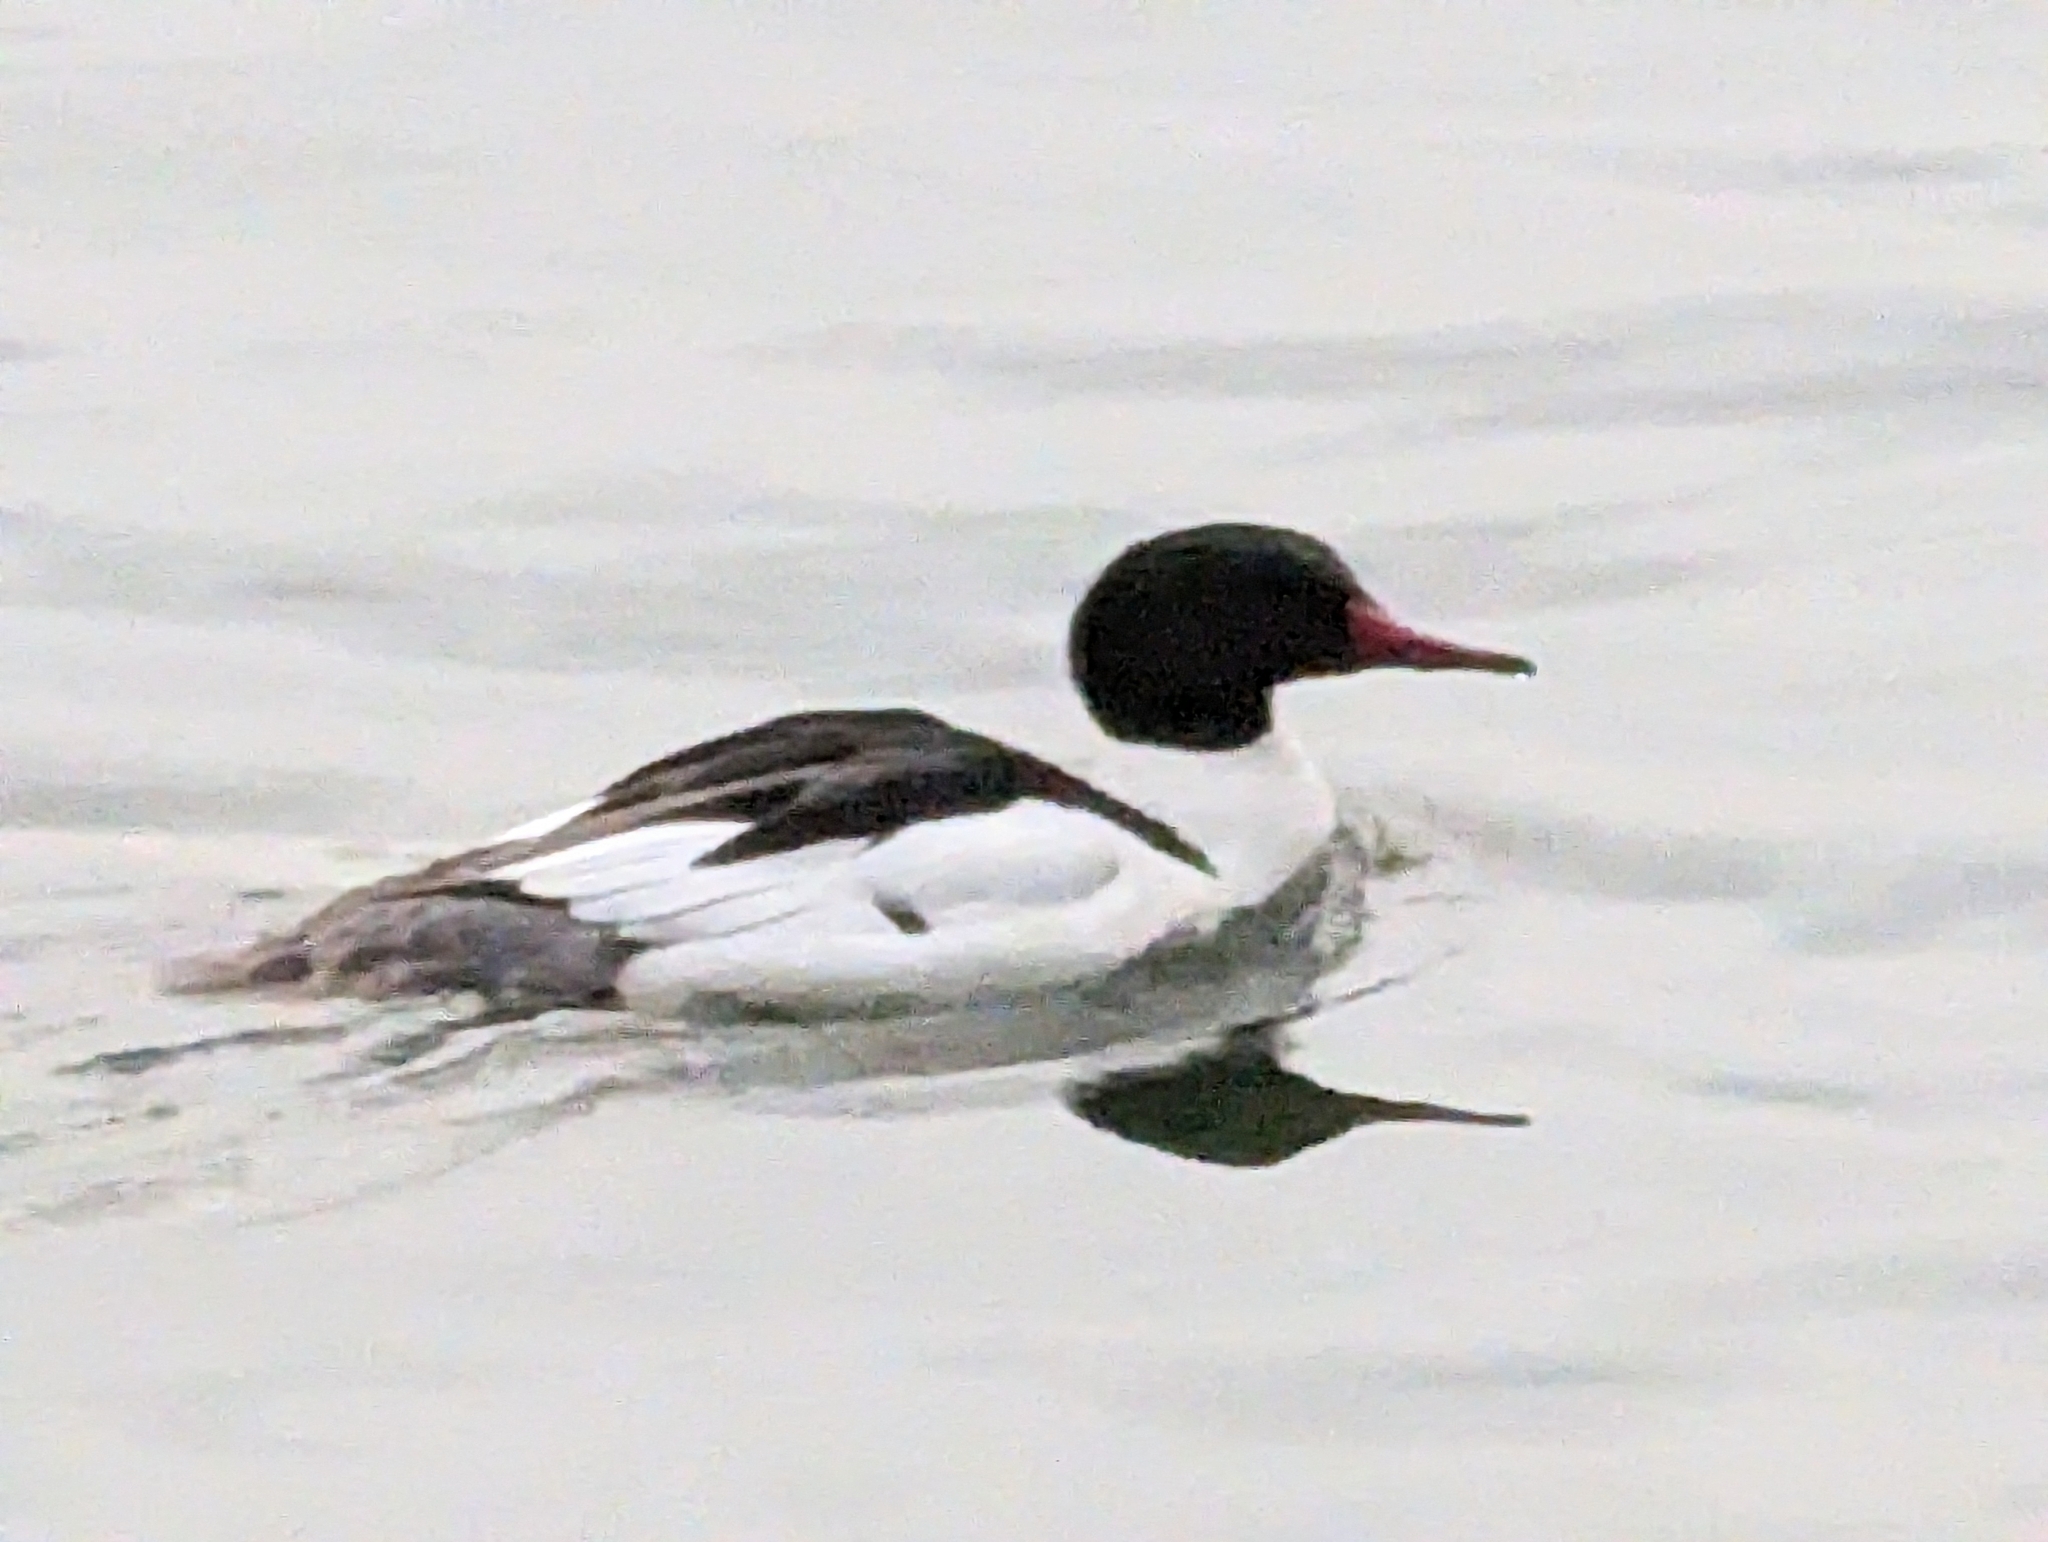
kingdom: Animalia
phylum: Chordata
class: Aves
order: Anseriformes
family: Anatidae
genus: Mergus
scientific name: Mergus merganser
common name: Common merganser
